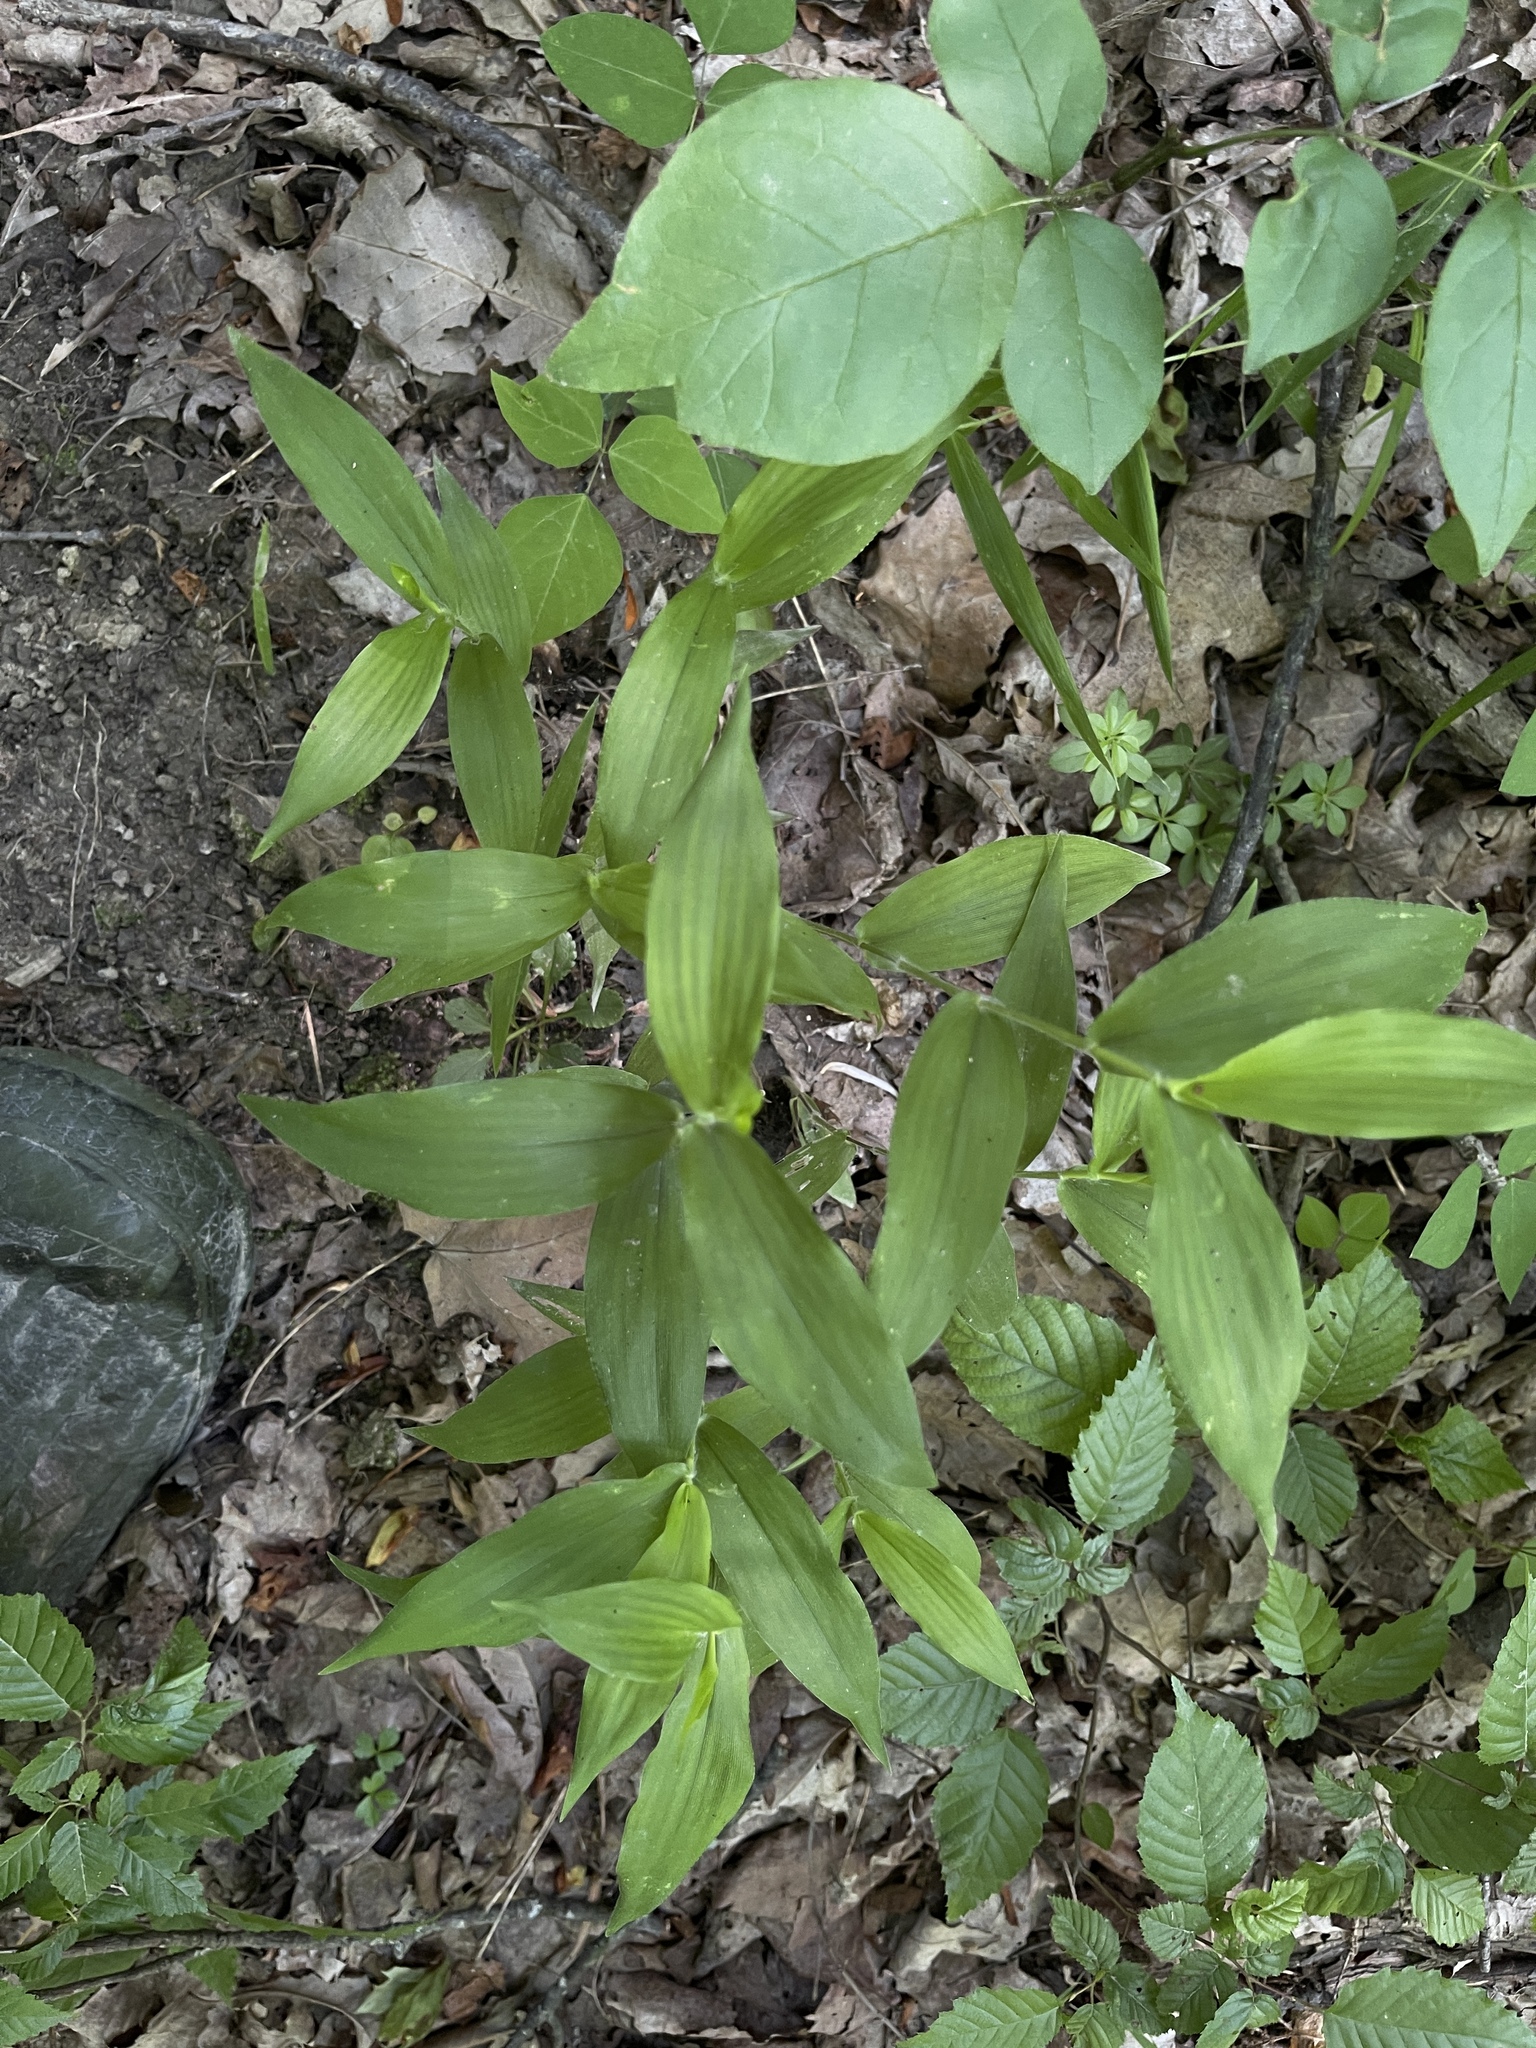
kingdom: Plantae
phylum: Tracheophyta
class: Liliopsida
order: Poales
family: Poaceae
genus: Dichanthelium
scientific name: Dichanthelium boscii
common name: Bosc's panic grass
